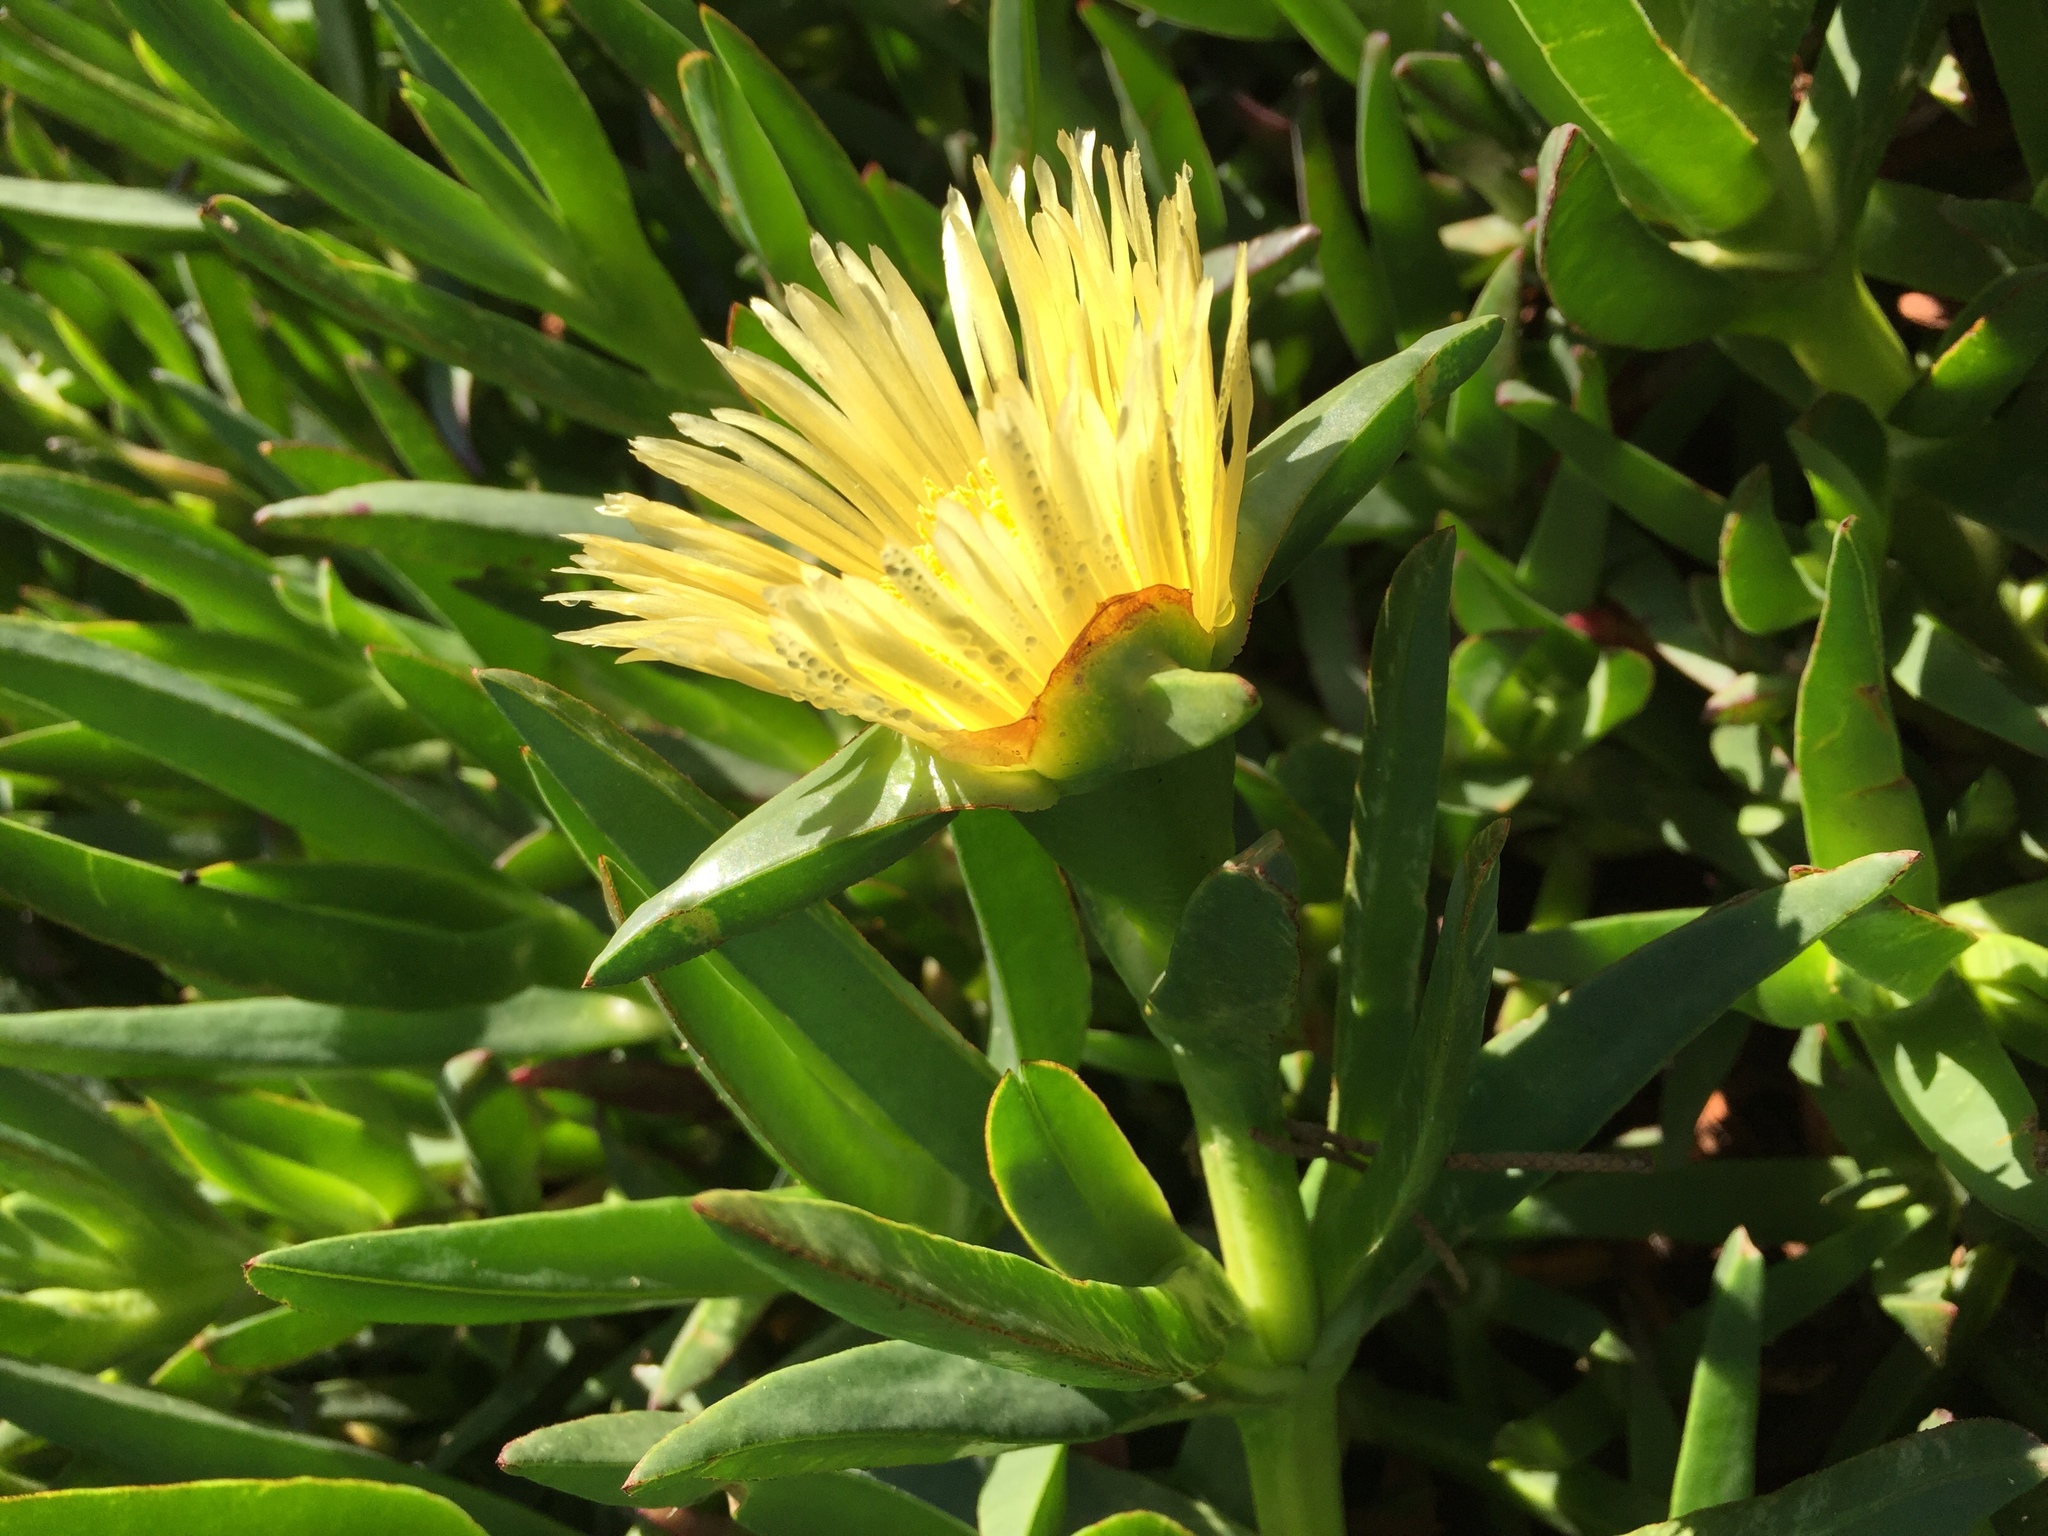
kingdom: Plantae
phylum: Tracheophyta
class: Magnoliopsida
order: Caryophyllales
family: Aizoaceae
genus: Carpobrotus
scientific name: Carpobrotus edulis
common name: Hottentot-fig
